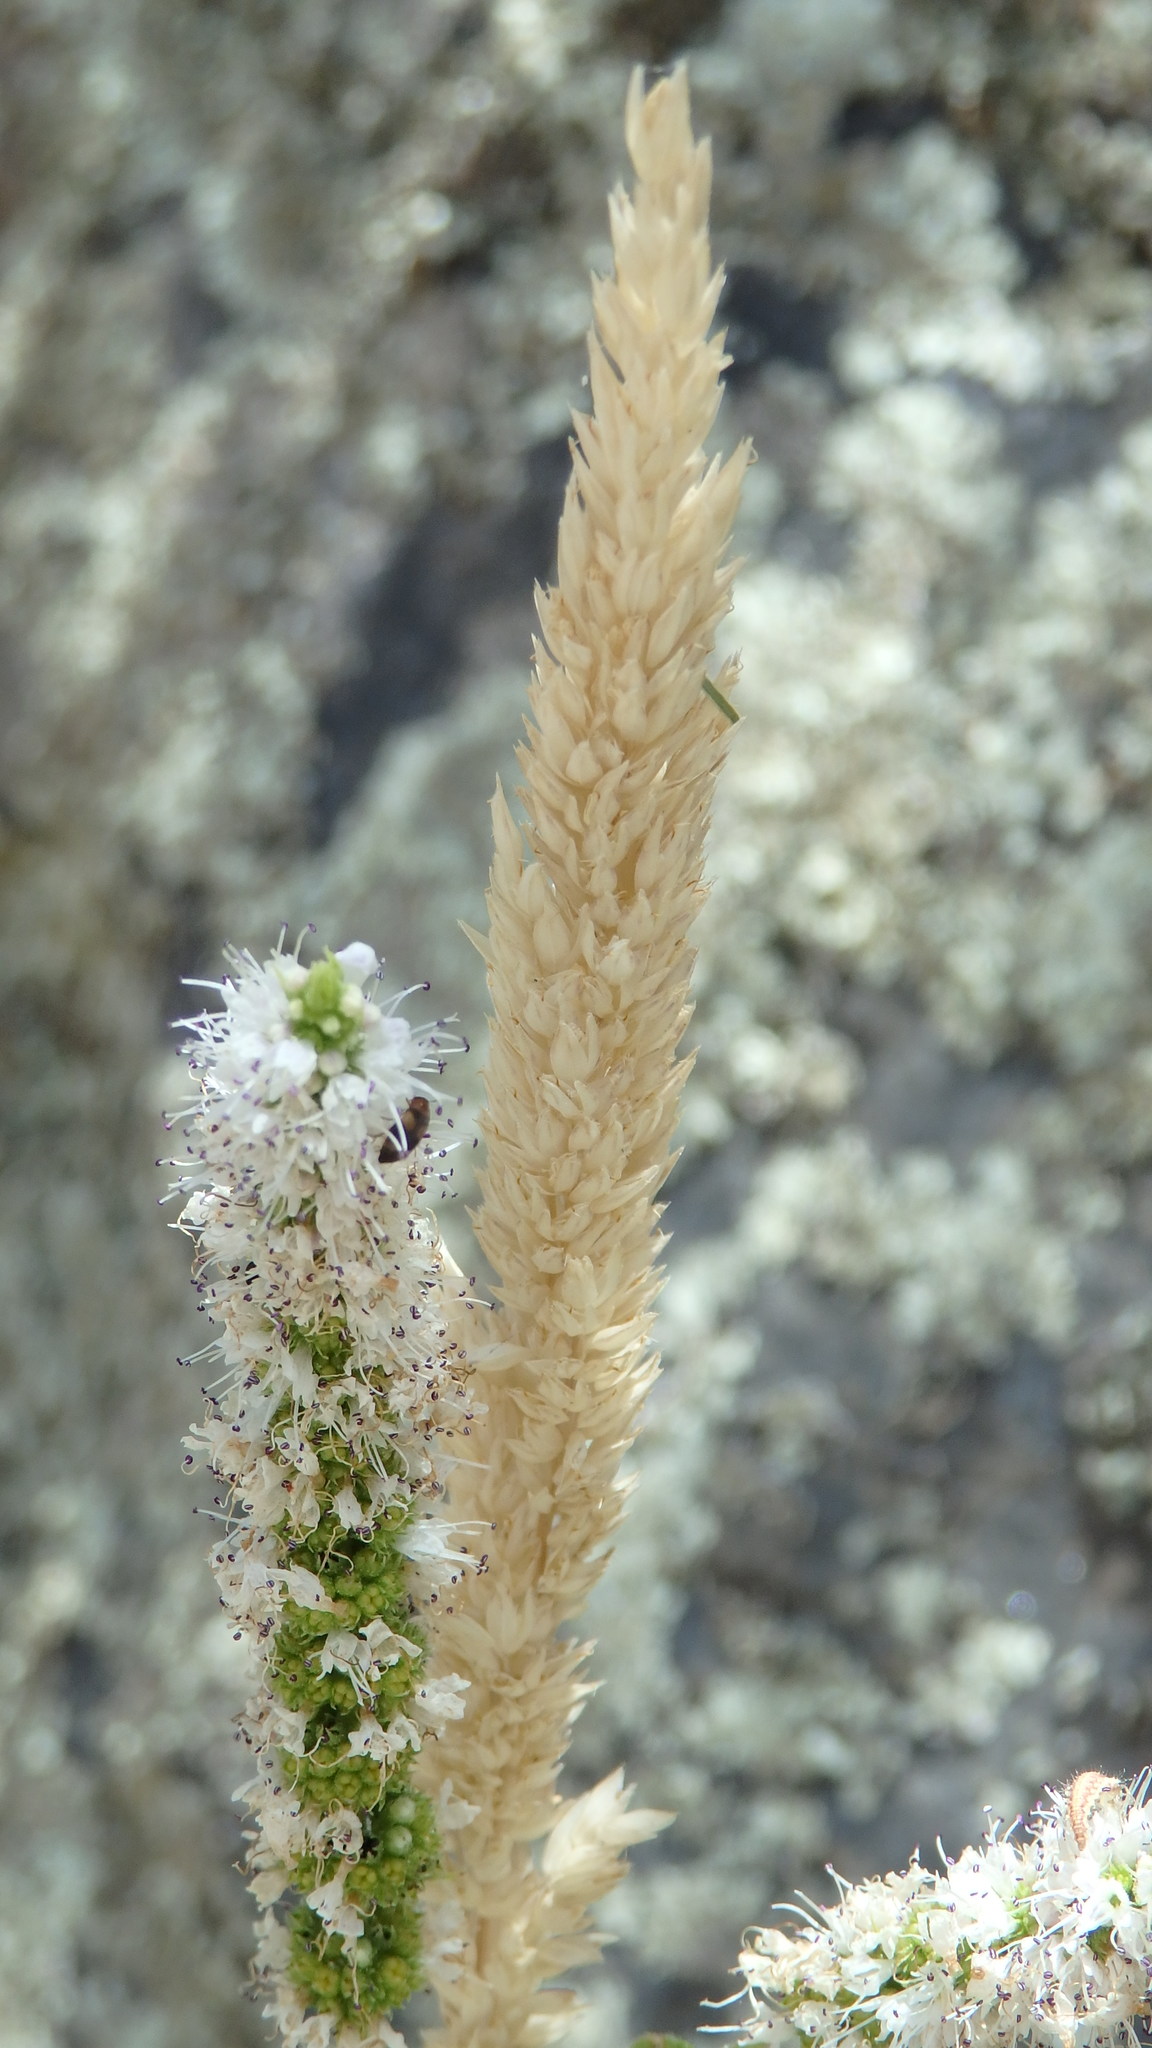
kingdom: Plantae
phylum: Tracheophyta
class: Magnoliopsida
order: Lamiales
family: Lamiaceae
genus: Mentha
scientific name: Mentha suaveolens
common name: Apple mint
